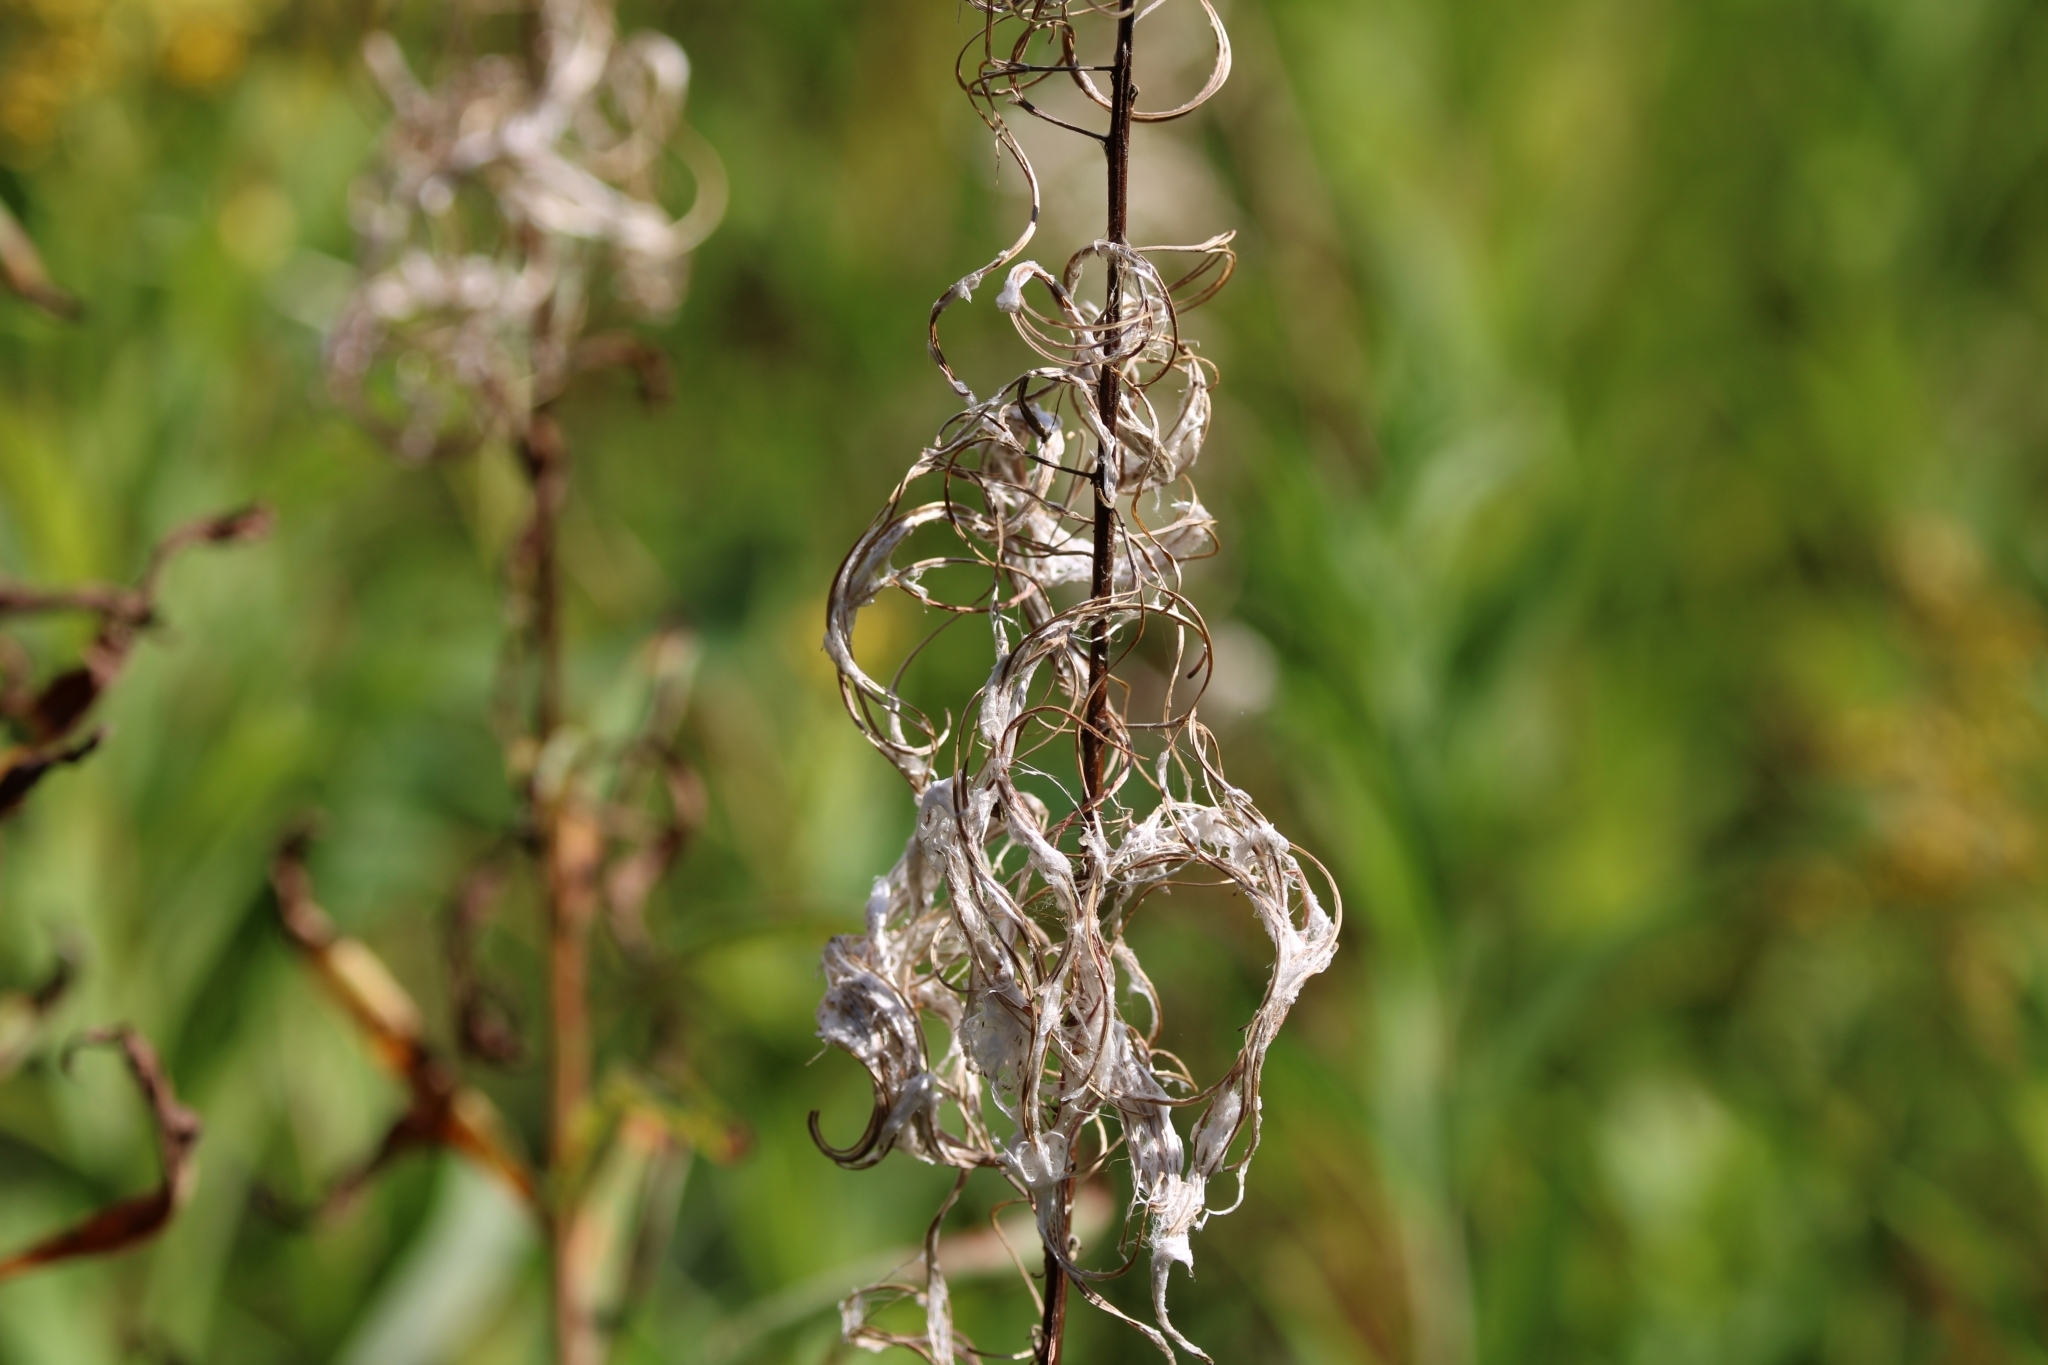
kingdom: Plantae
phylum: Tracheophyta
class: Magnoliopsida
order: Myrtales
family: Onagraceae
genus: Chamaenerion
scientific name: Chamaenerion angustifolium
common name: Fireweed
